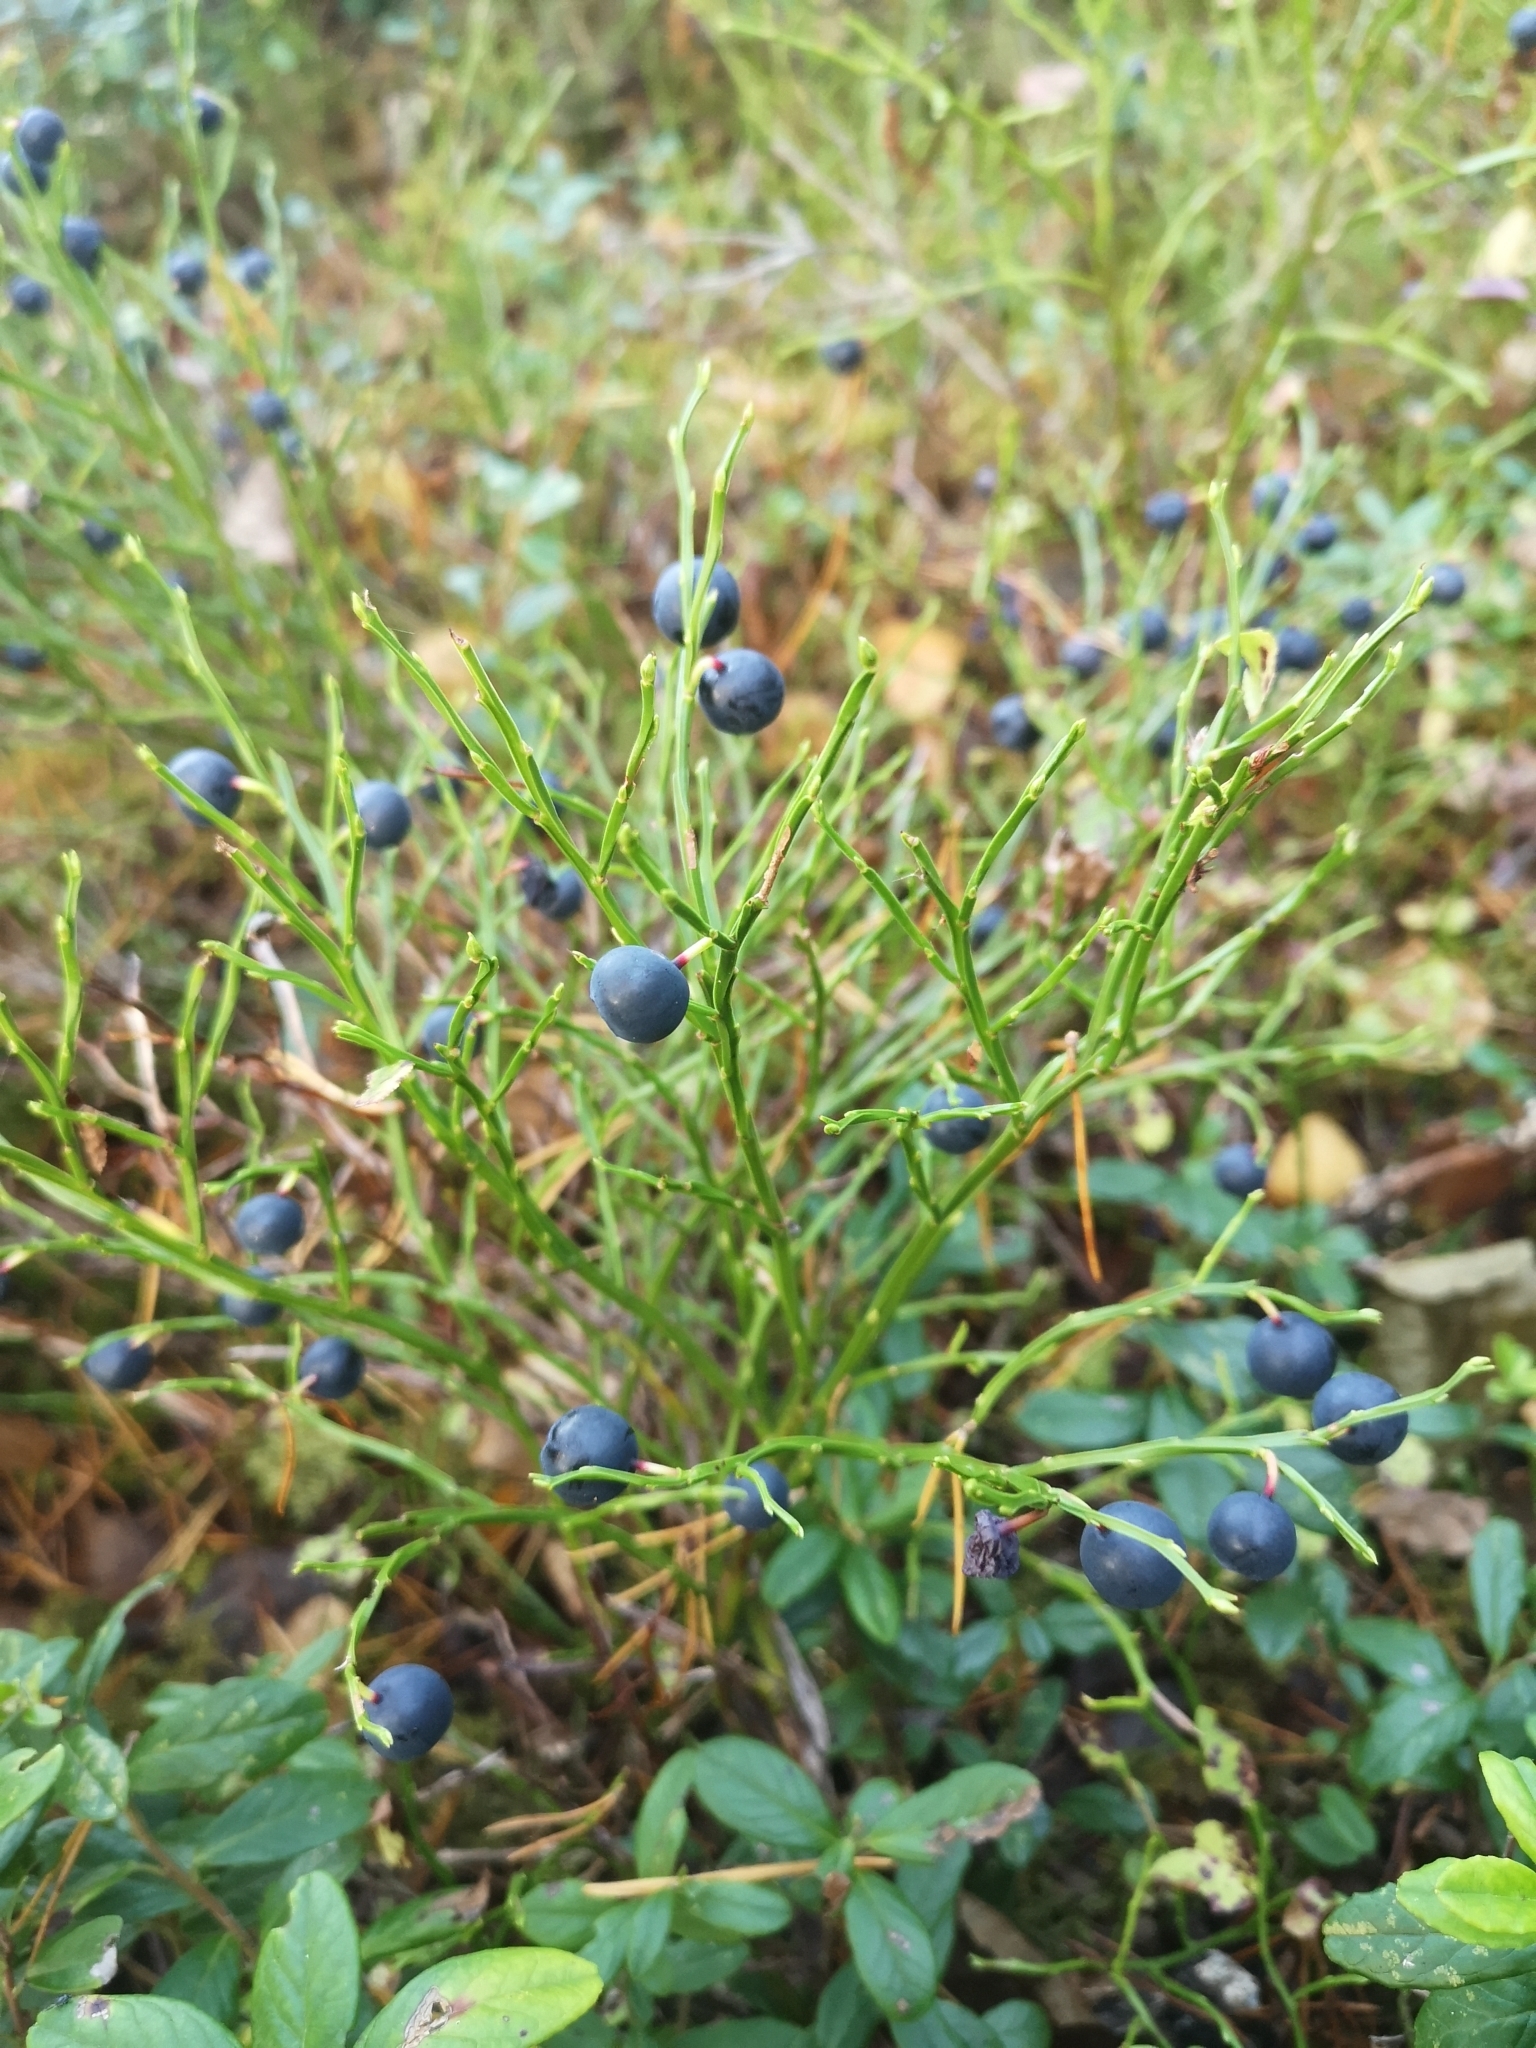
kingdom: Plantae
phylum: Tracheophyta
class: Magnoliopsida
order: Ericales
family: Ericaceae
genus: Vaccinium
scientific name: Vaccinium myrtillus
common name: Bilberry
